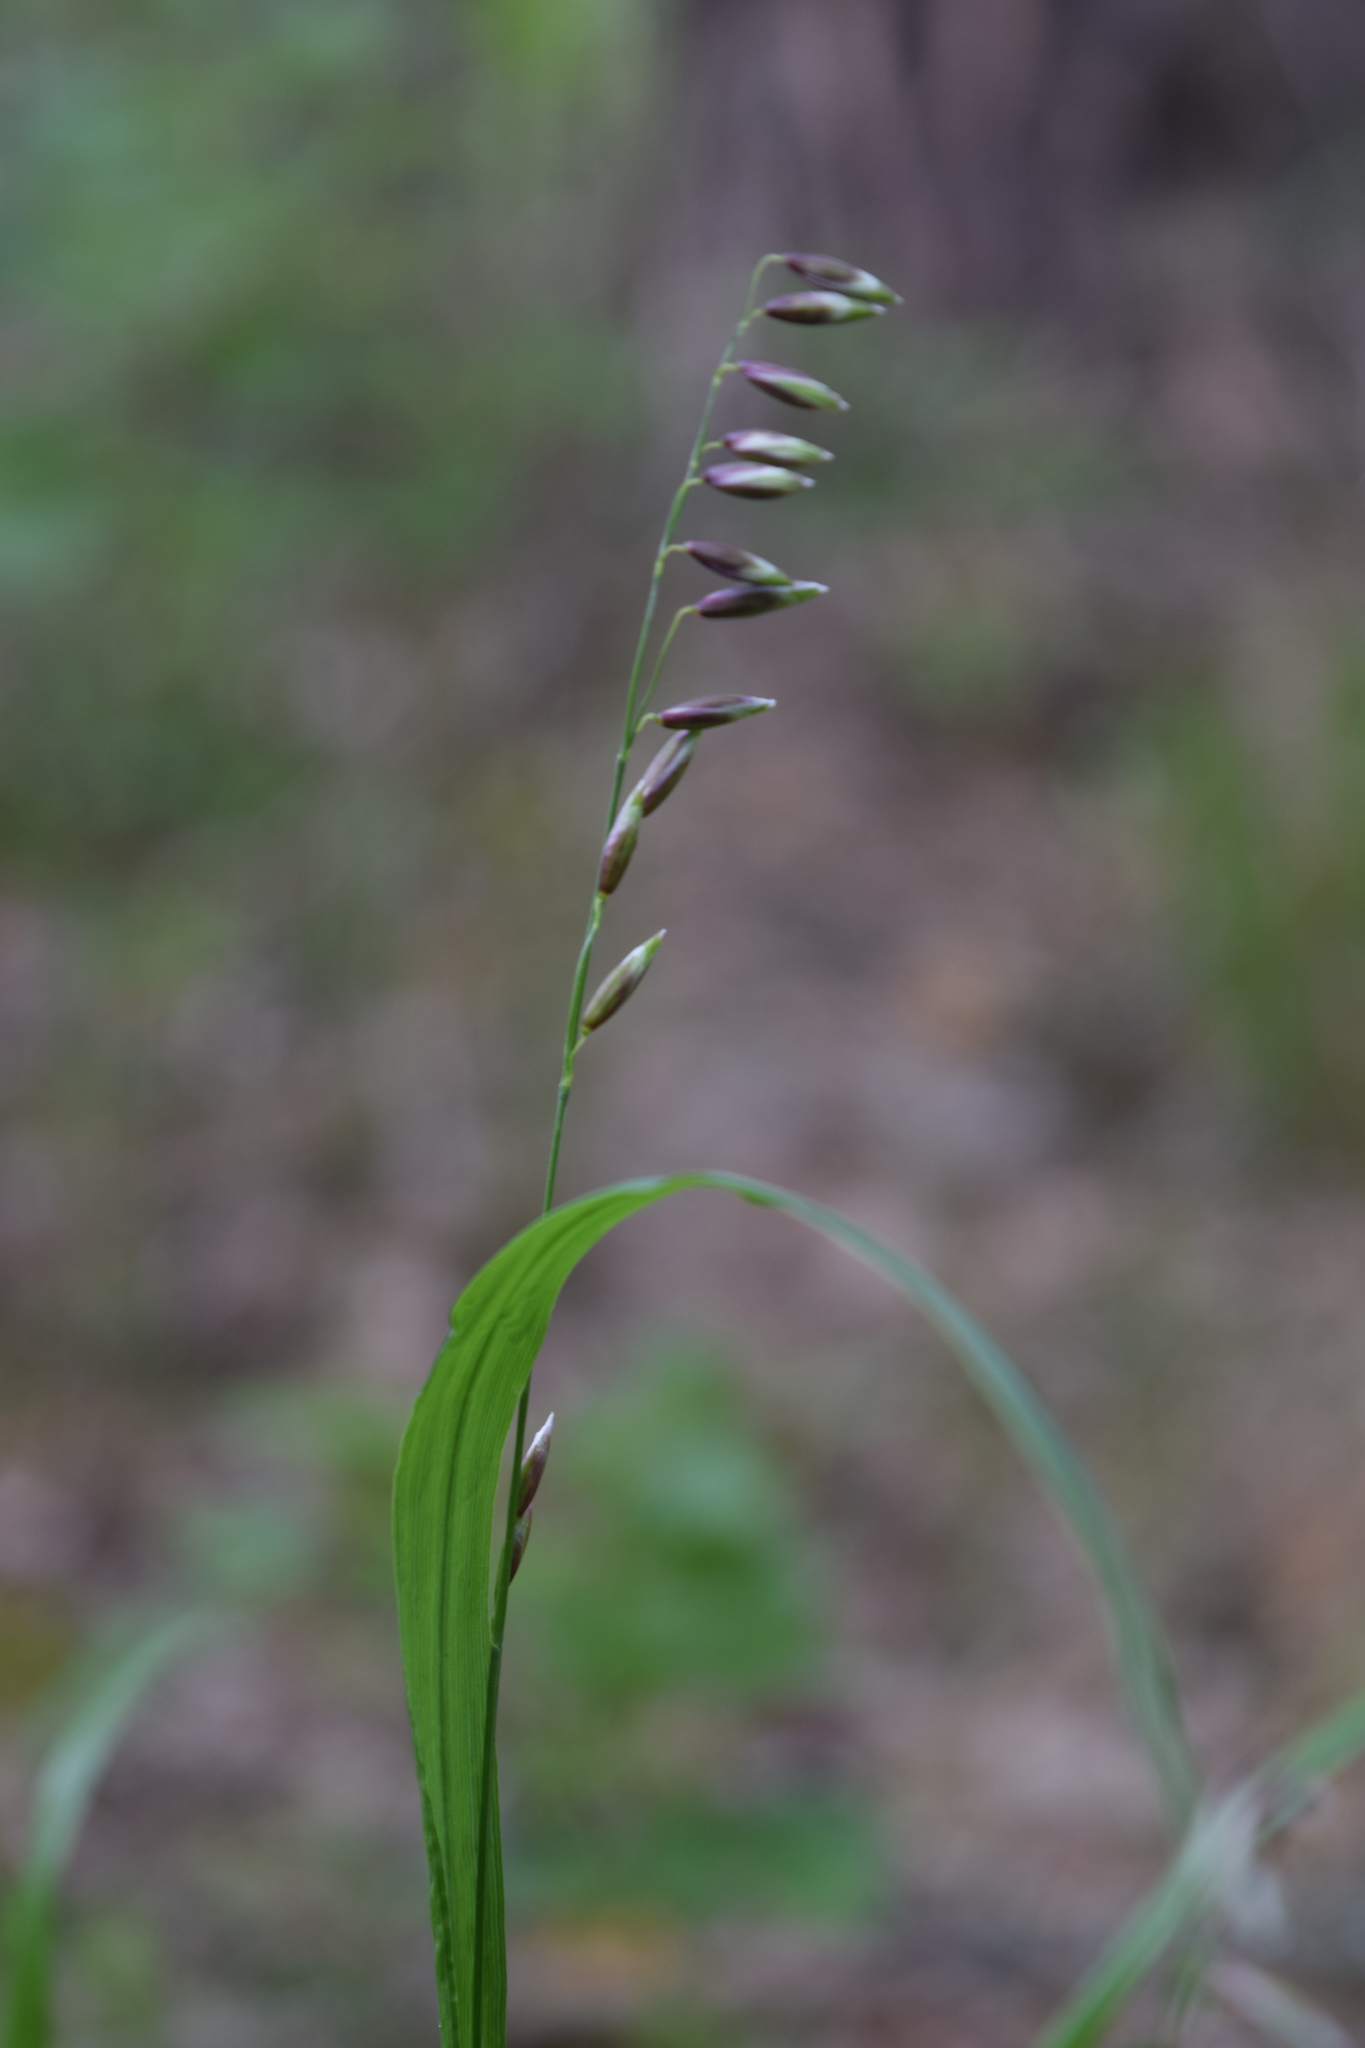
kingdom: Plantae
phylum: Tracheophyta
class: Liliopsida
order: Poales
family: Poaceae
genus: Melica
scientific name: Melica nutans
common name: Mountain melick
